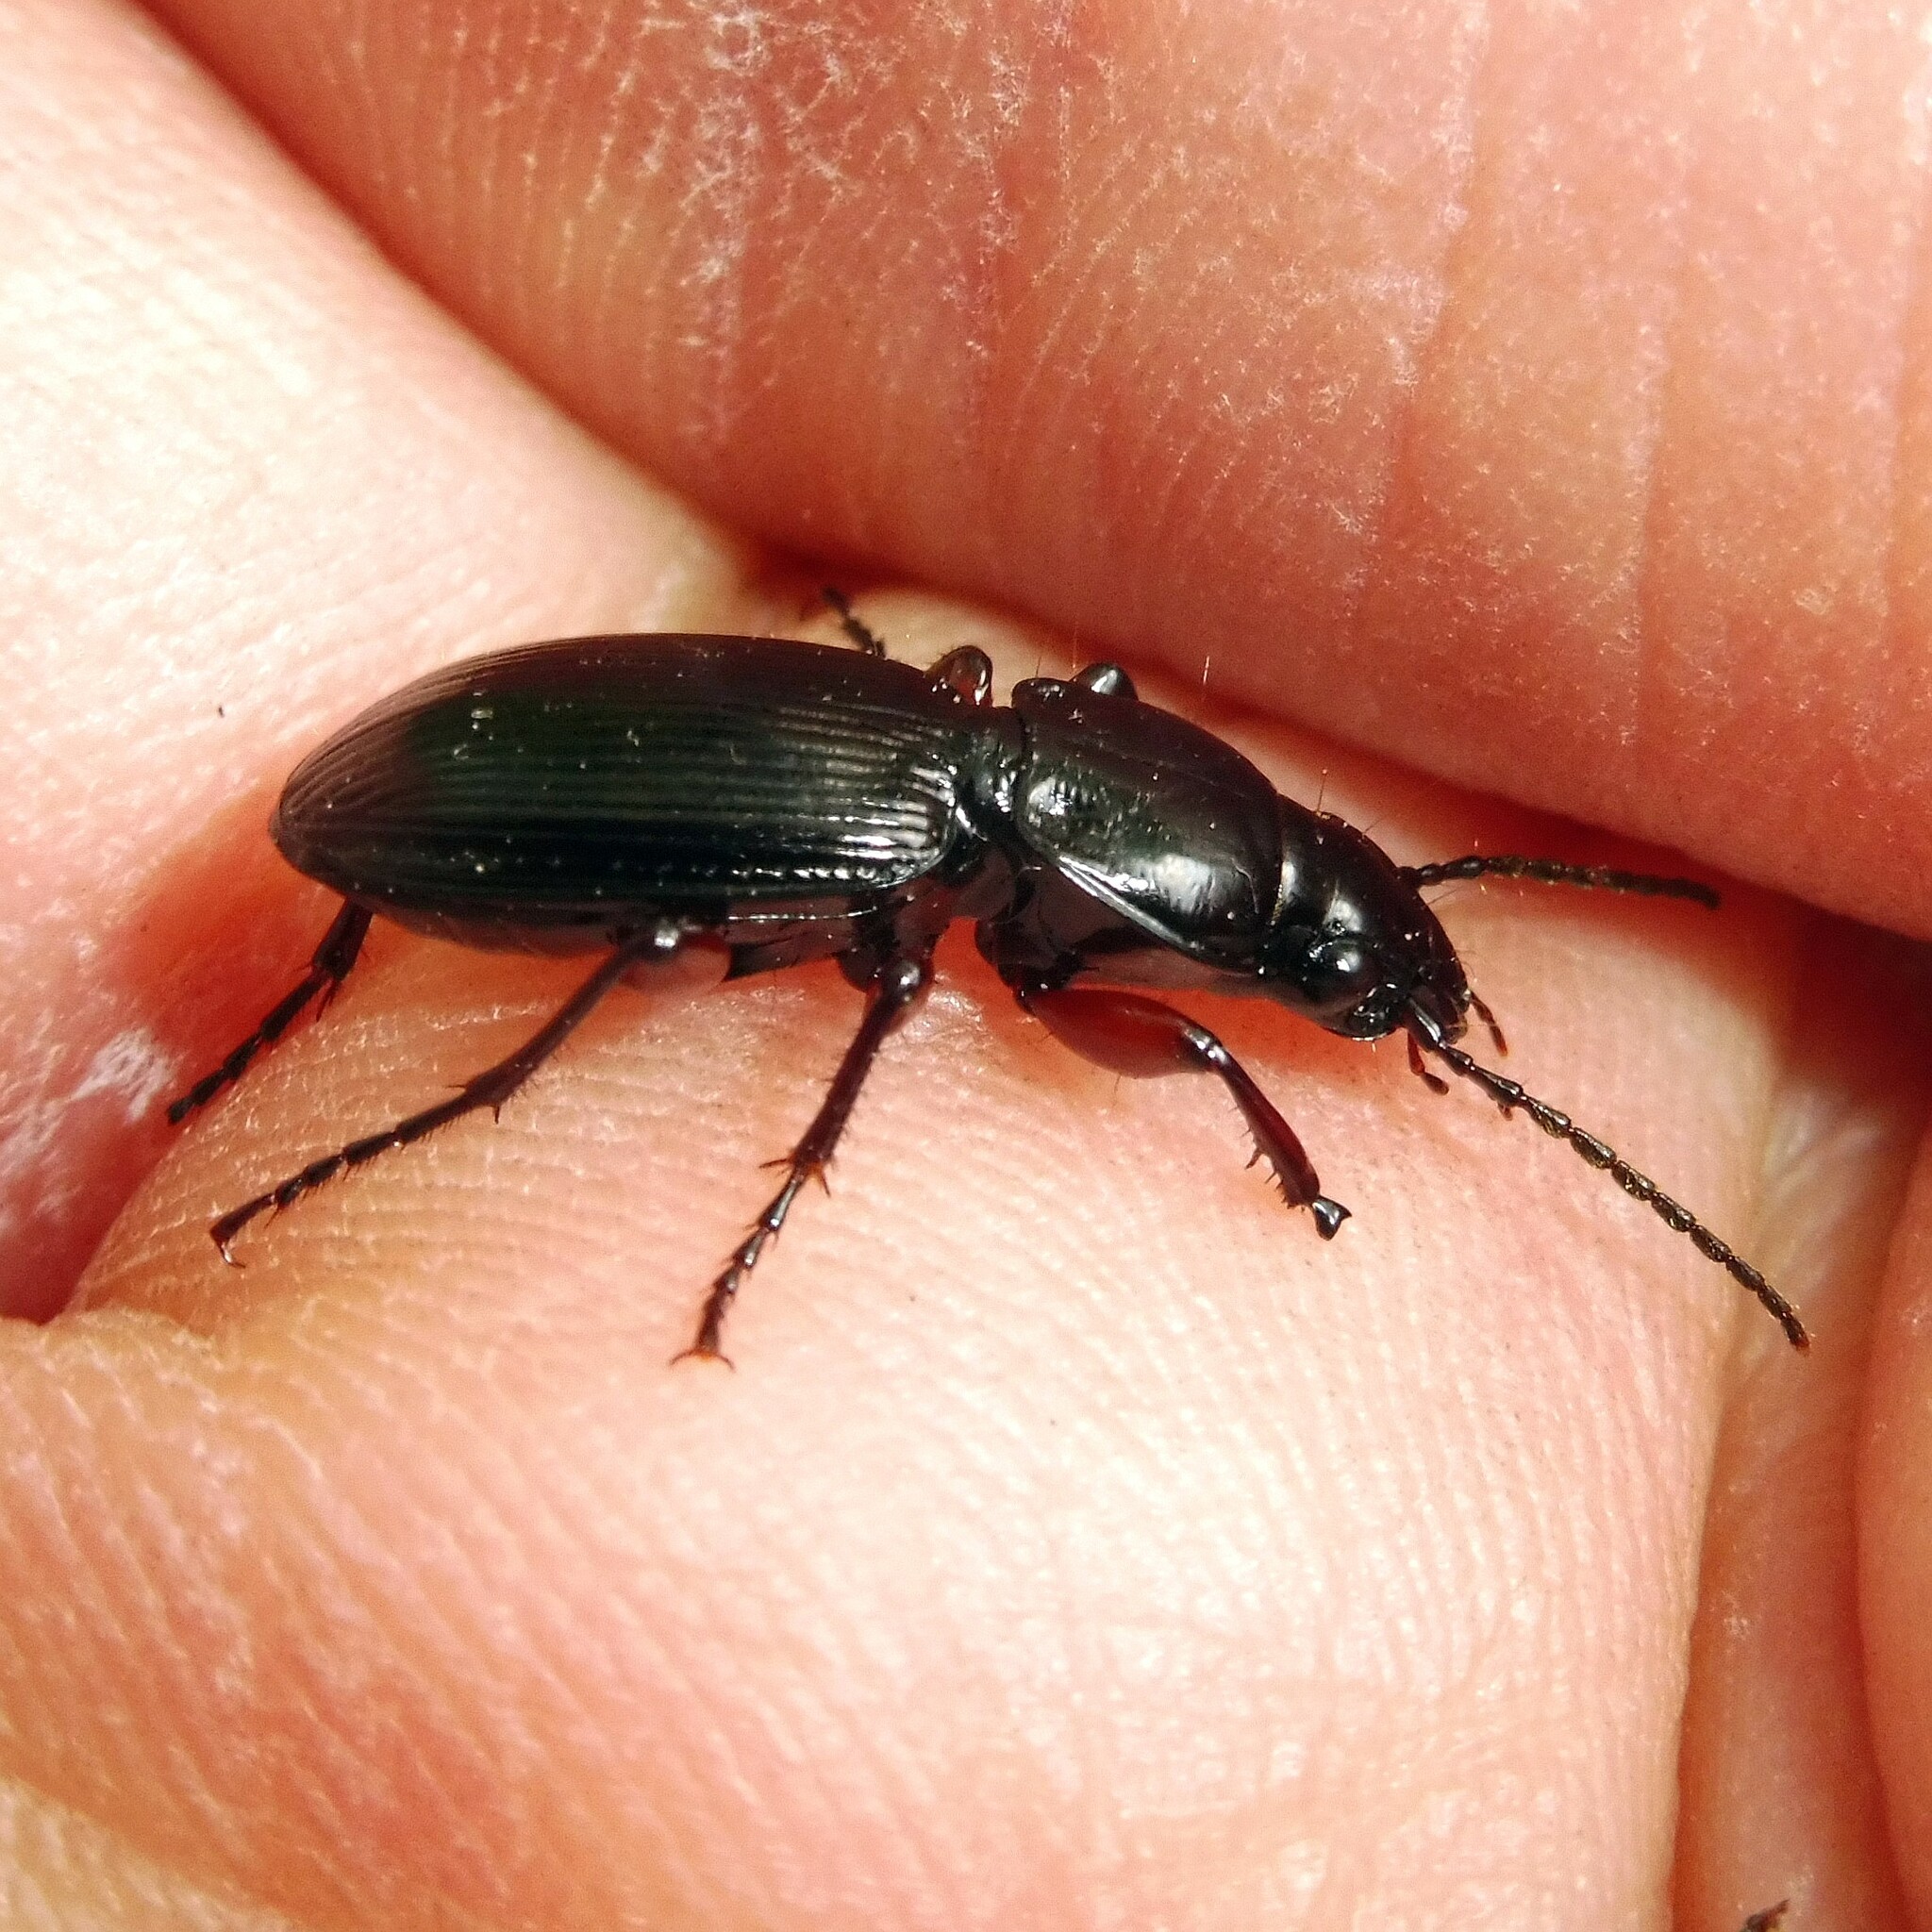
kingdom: Animalia
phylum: Arthropoda
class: Insecta
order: Coleoptera
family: Carabidae
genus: Pterostichus
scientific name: Pterostichus madidus
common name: Black clock
